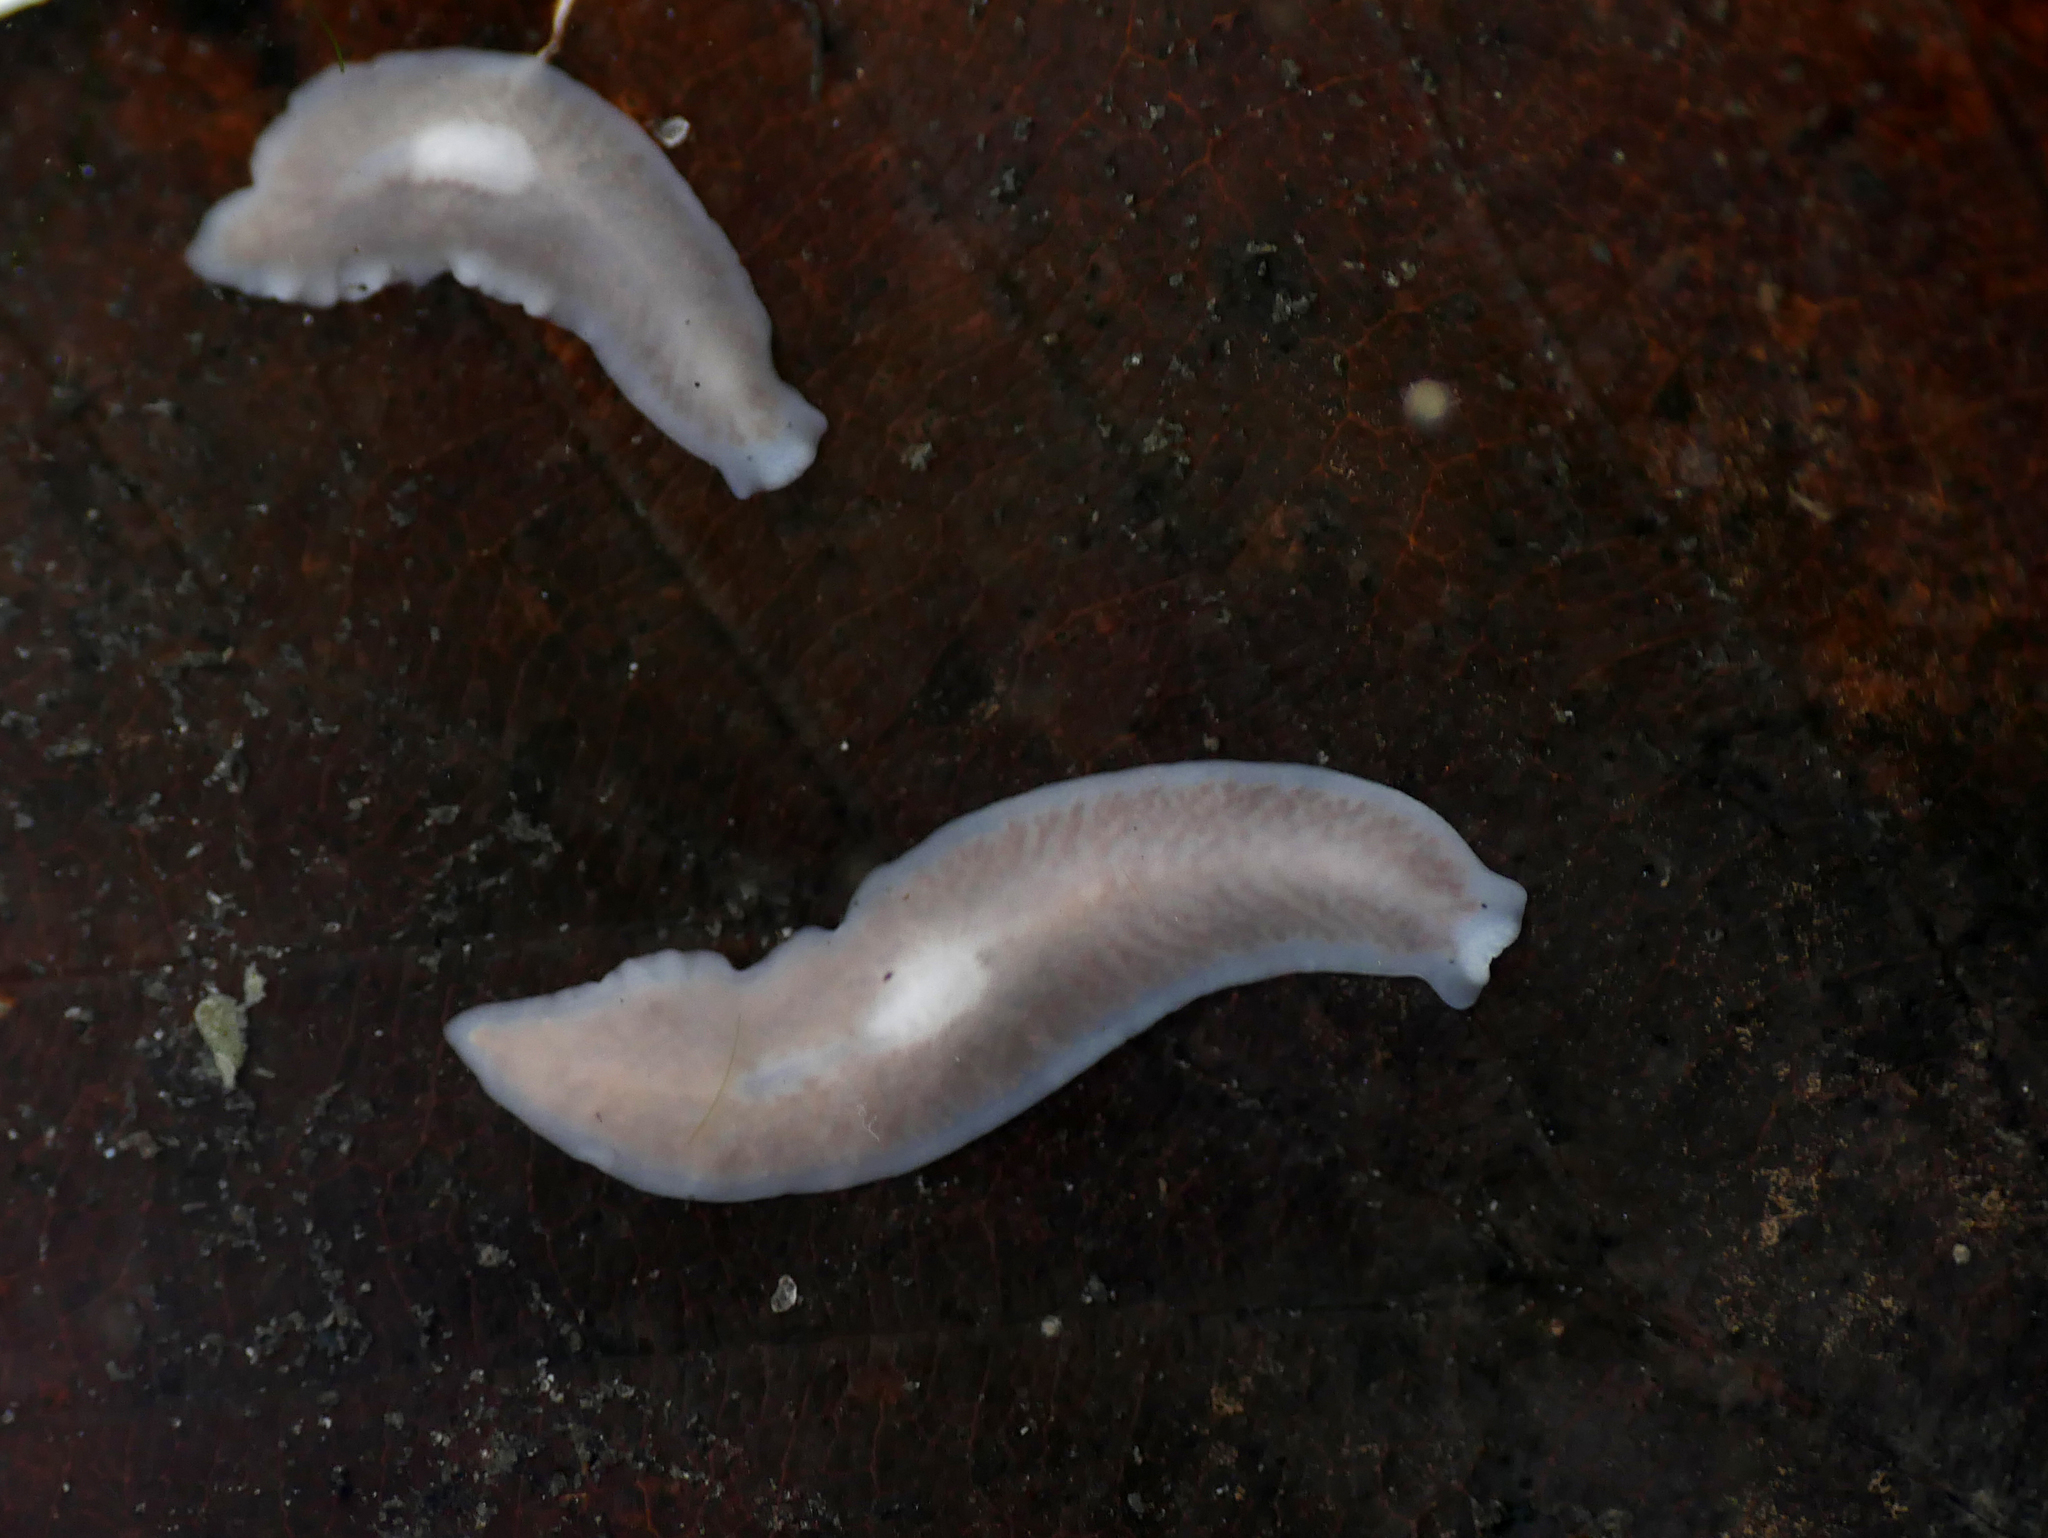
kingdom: Animalia
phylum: Platyhelminthes
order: Tricladida
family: Dendrocoelidae
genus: Dendrocoelum
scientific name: Dendrocoelum lacteum
